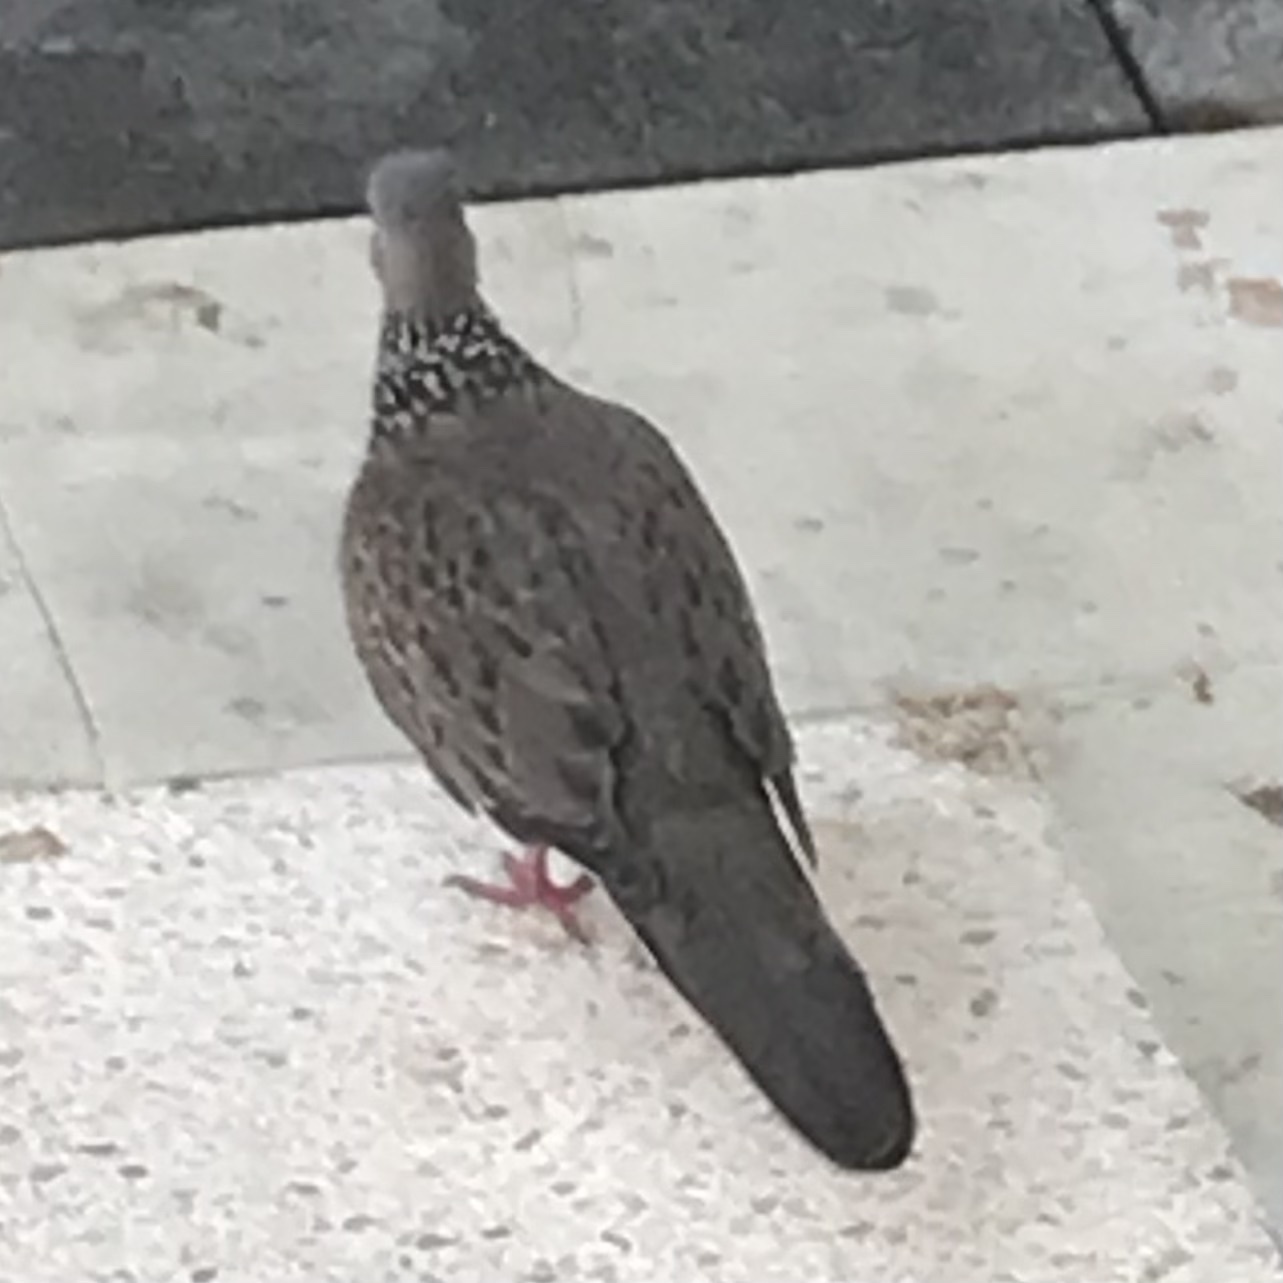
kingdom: Animalia
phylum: Chordata
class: Aves
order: Columbiformes
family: Columbidae
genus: Spilopelia
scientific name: Spilopelia chinensis
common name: Spotted dove
